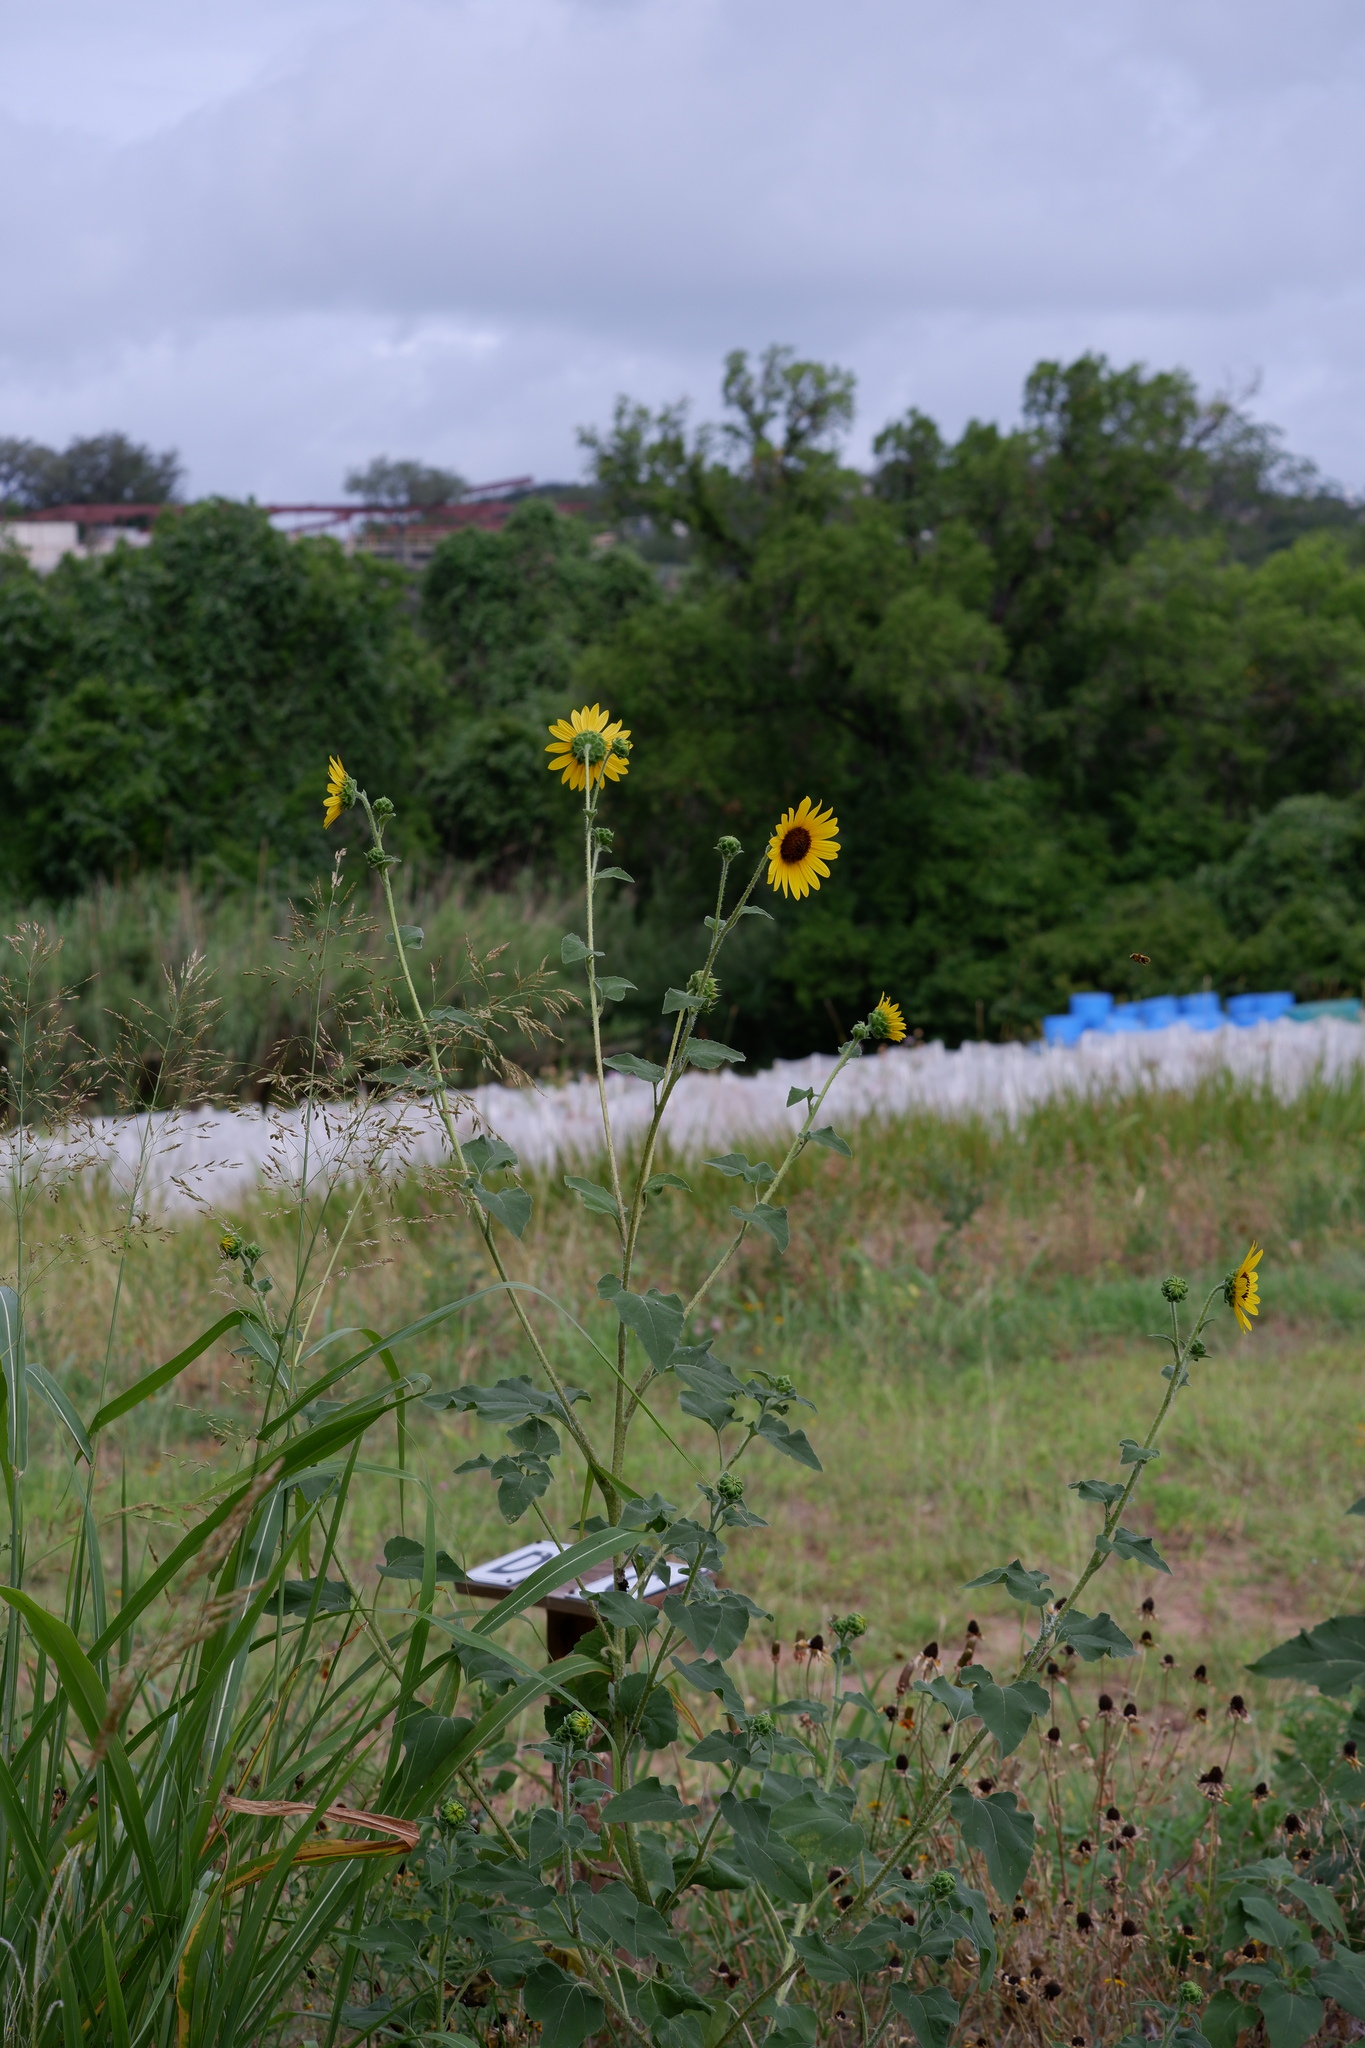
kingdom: Plantae
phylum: Tracheophyta
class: Magnoliopsida
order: Asterales
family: Asteraceae
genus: Helianthus
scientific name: Helianthus annuus
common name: Sunflower
